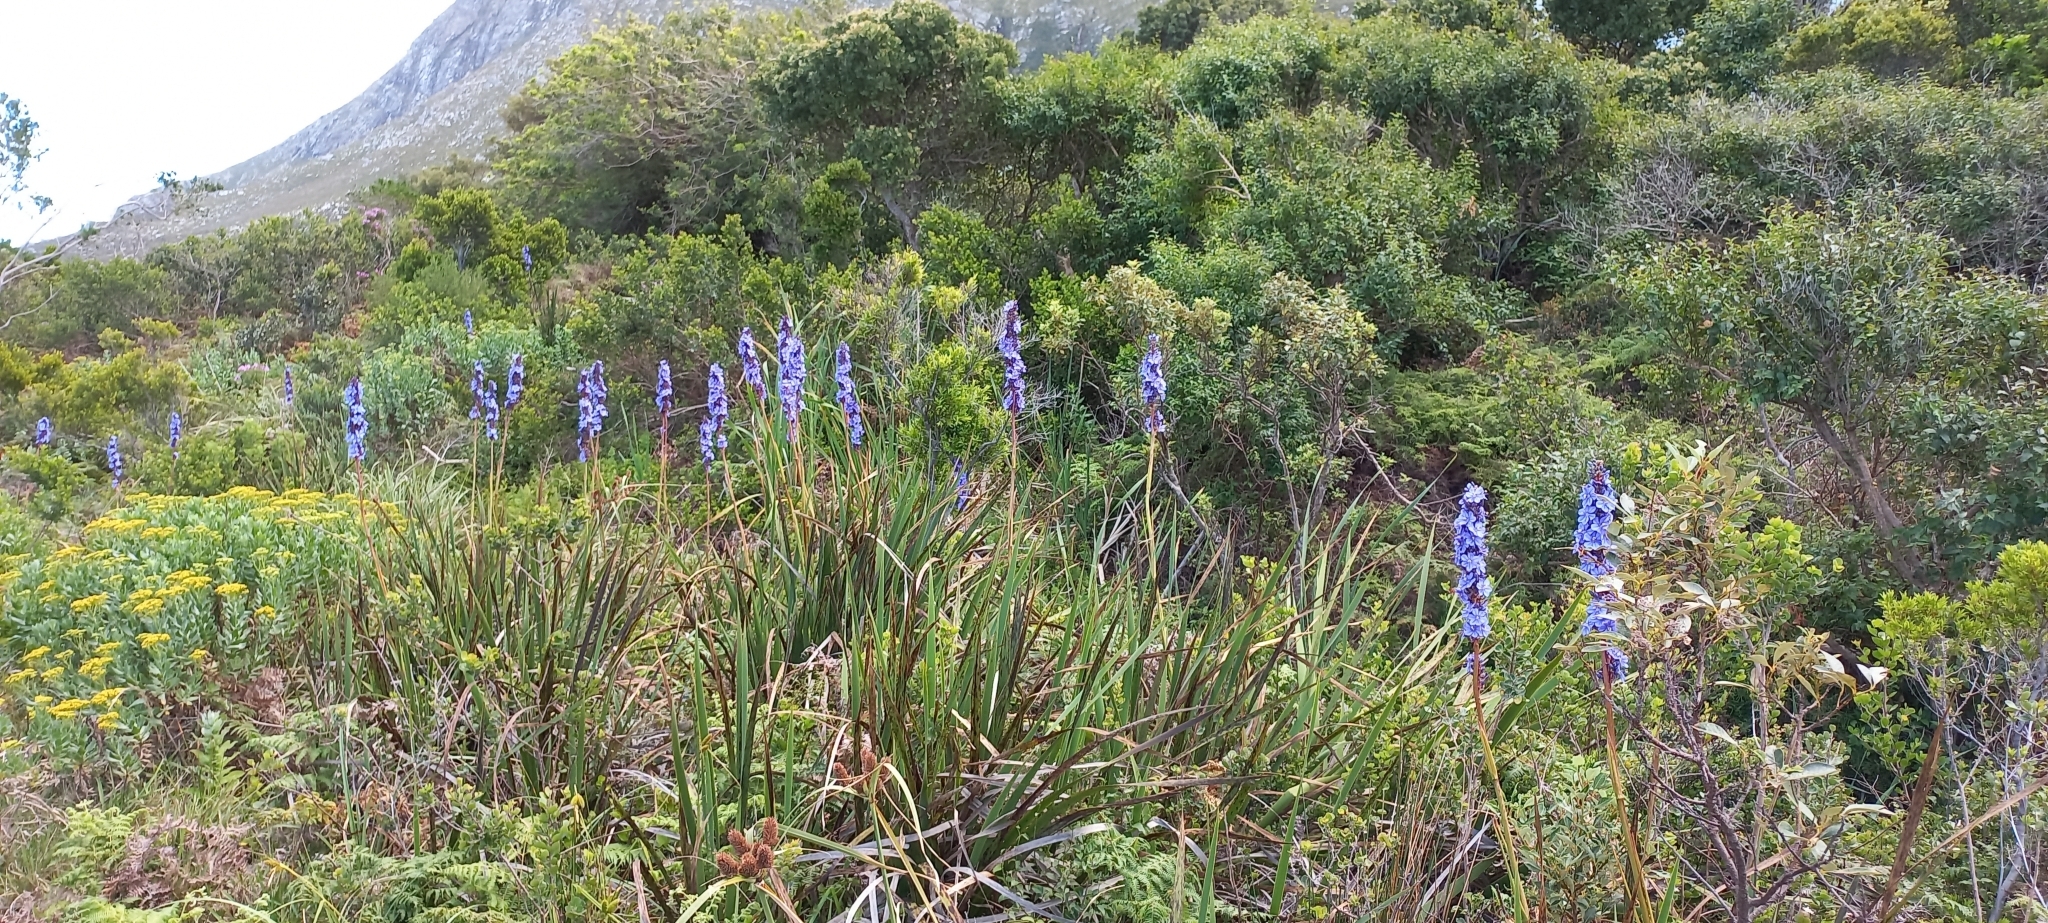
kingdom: Plantae
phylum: Tracheophyta
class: Liliopsida
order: Asparagales
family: Iridaceae
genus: Aristea
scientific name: Aristea capitata
